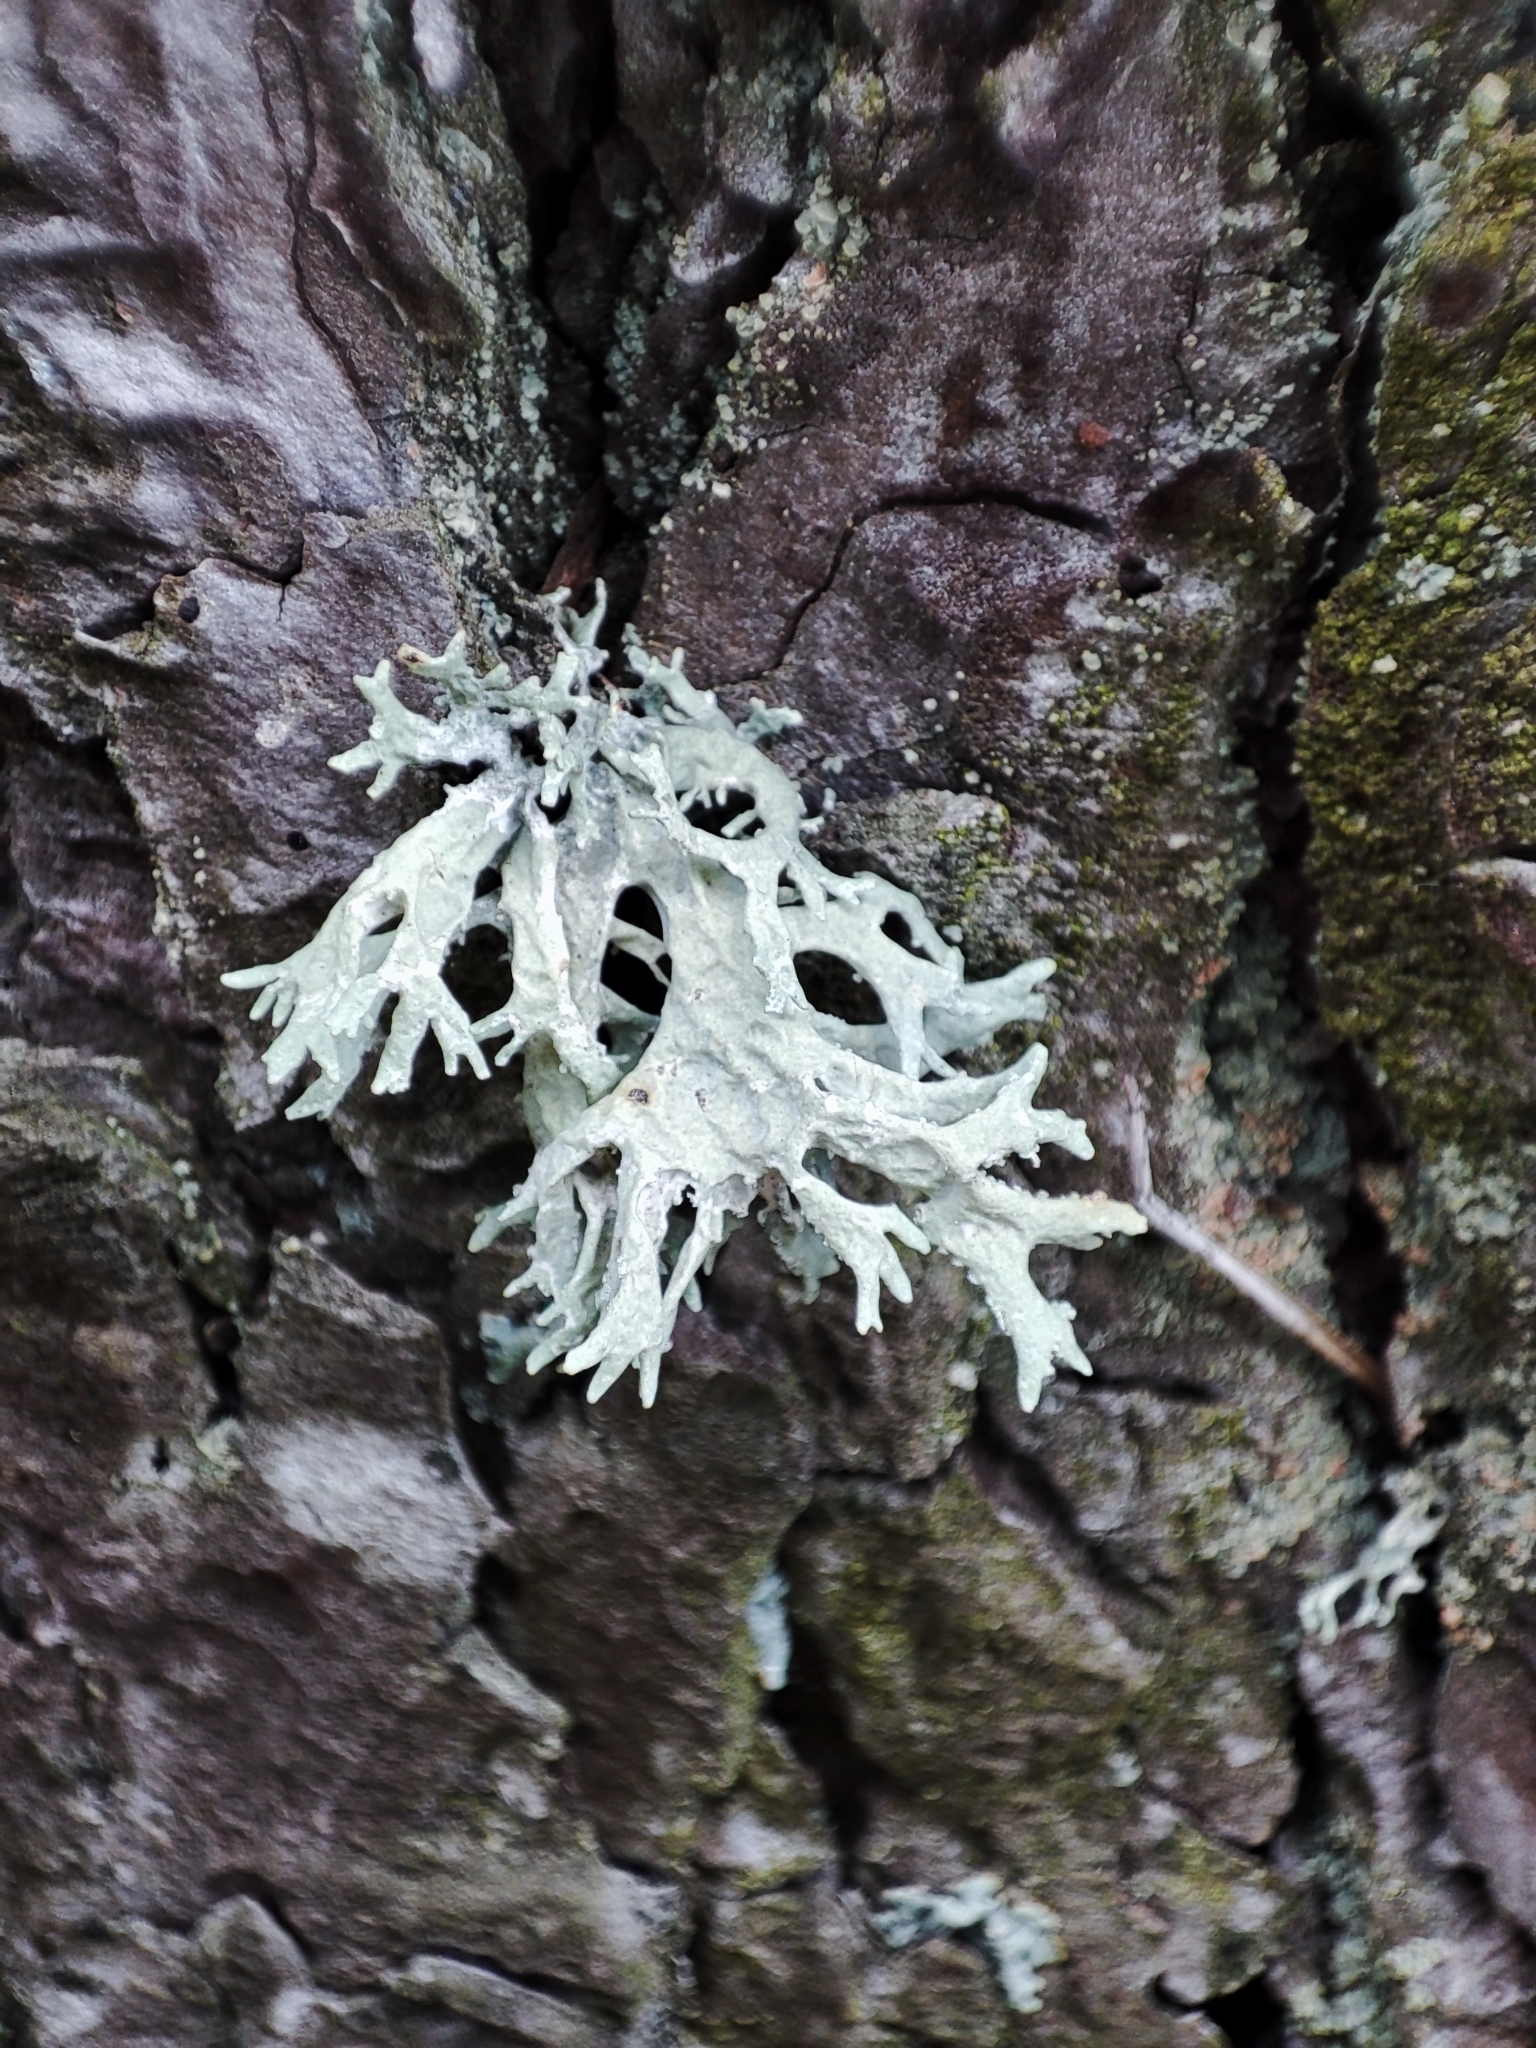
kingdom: Fungi
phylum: Ascomycota
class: Lecanoromycetes
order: Lecanorales
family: Parmeliaceae
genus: Evernia
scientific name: Evernia prunastri
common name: Oak moss
